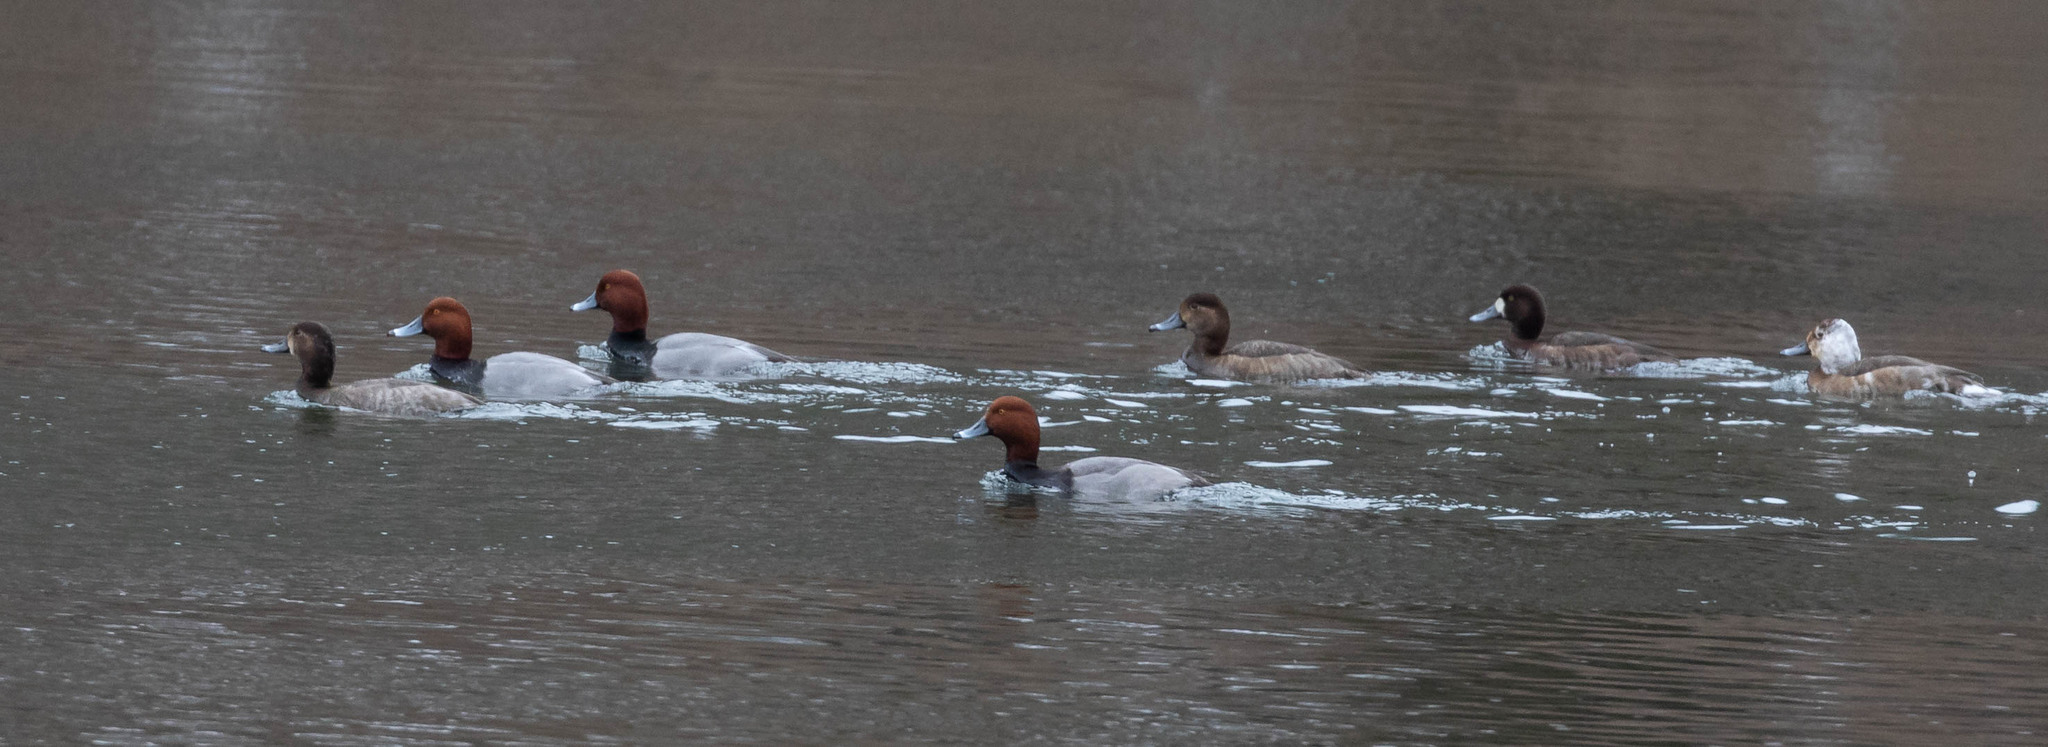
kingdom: Animalia
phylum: Chordata
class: Aves
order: Anseriformes
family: Anatidae
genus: Aythya
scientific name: Aythya marila
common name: Greater scaup
